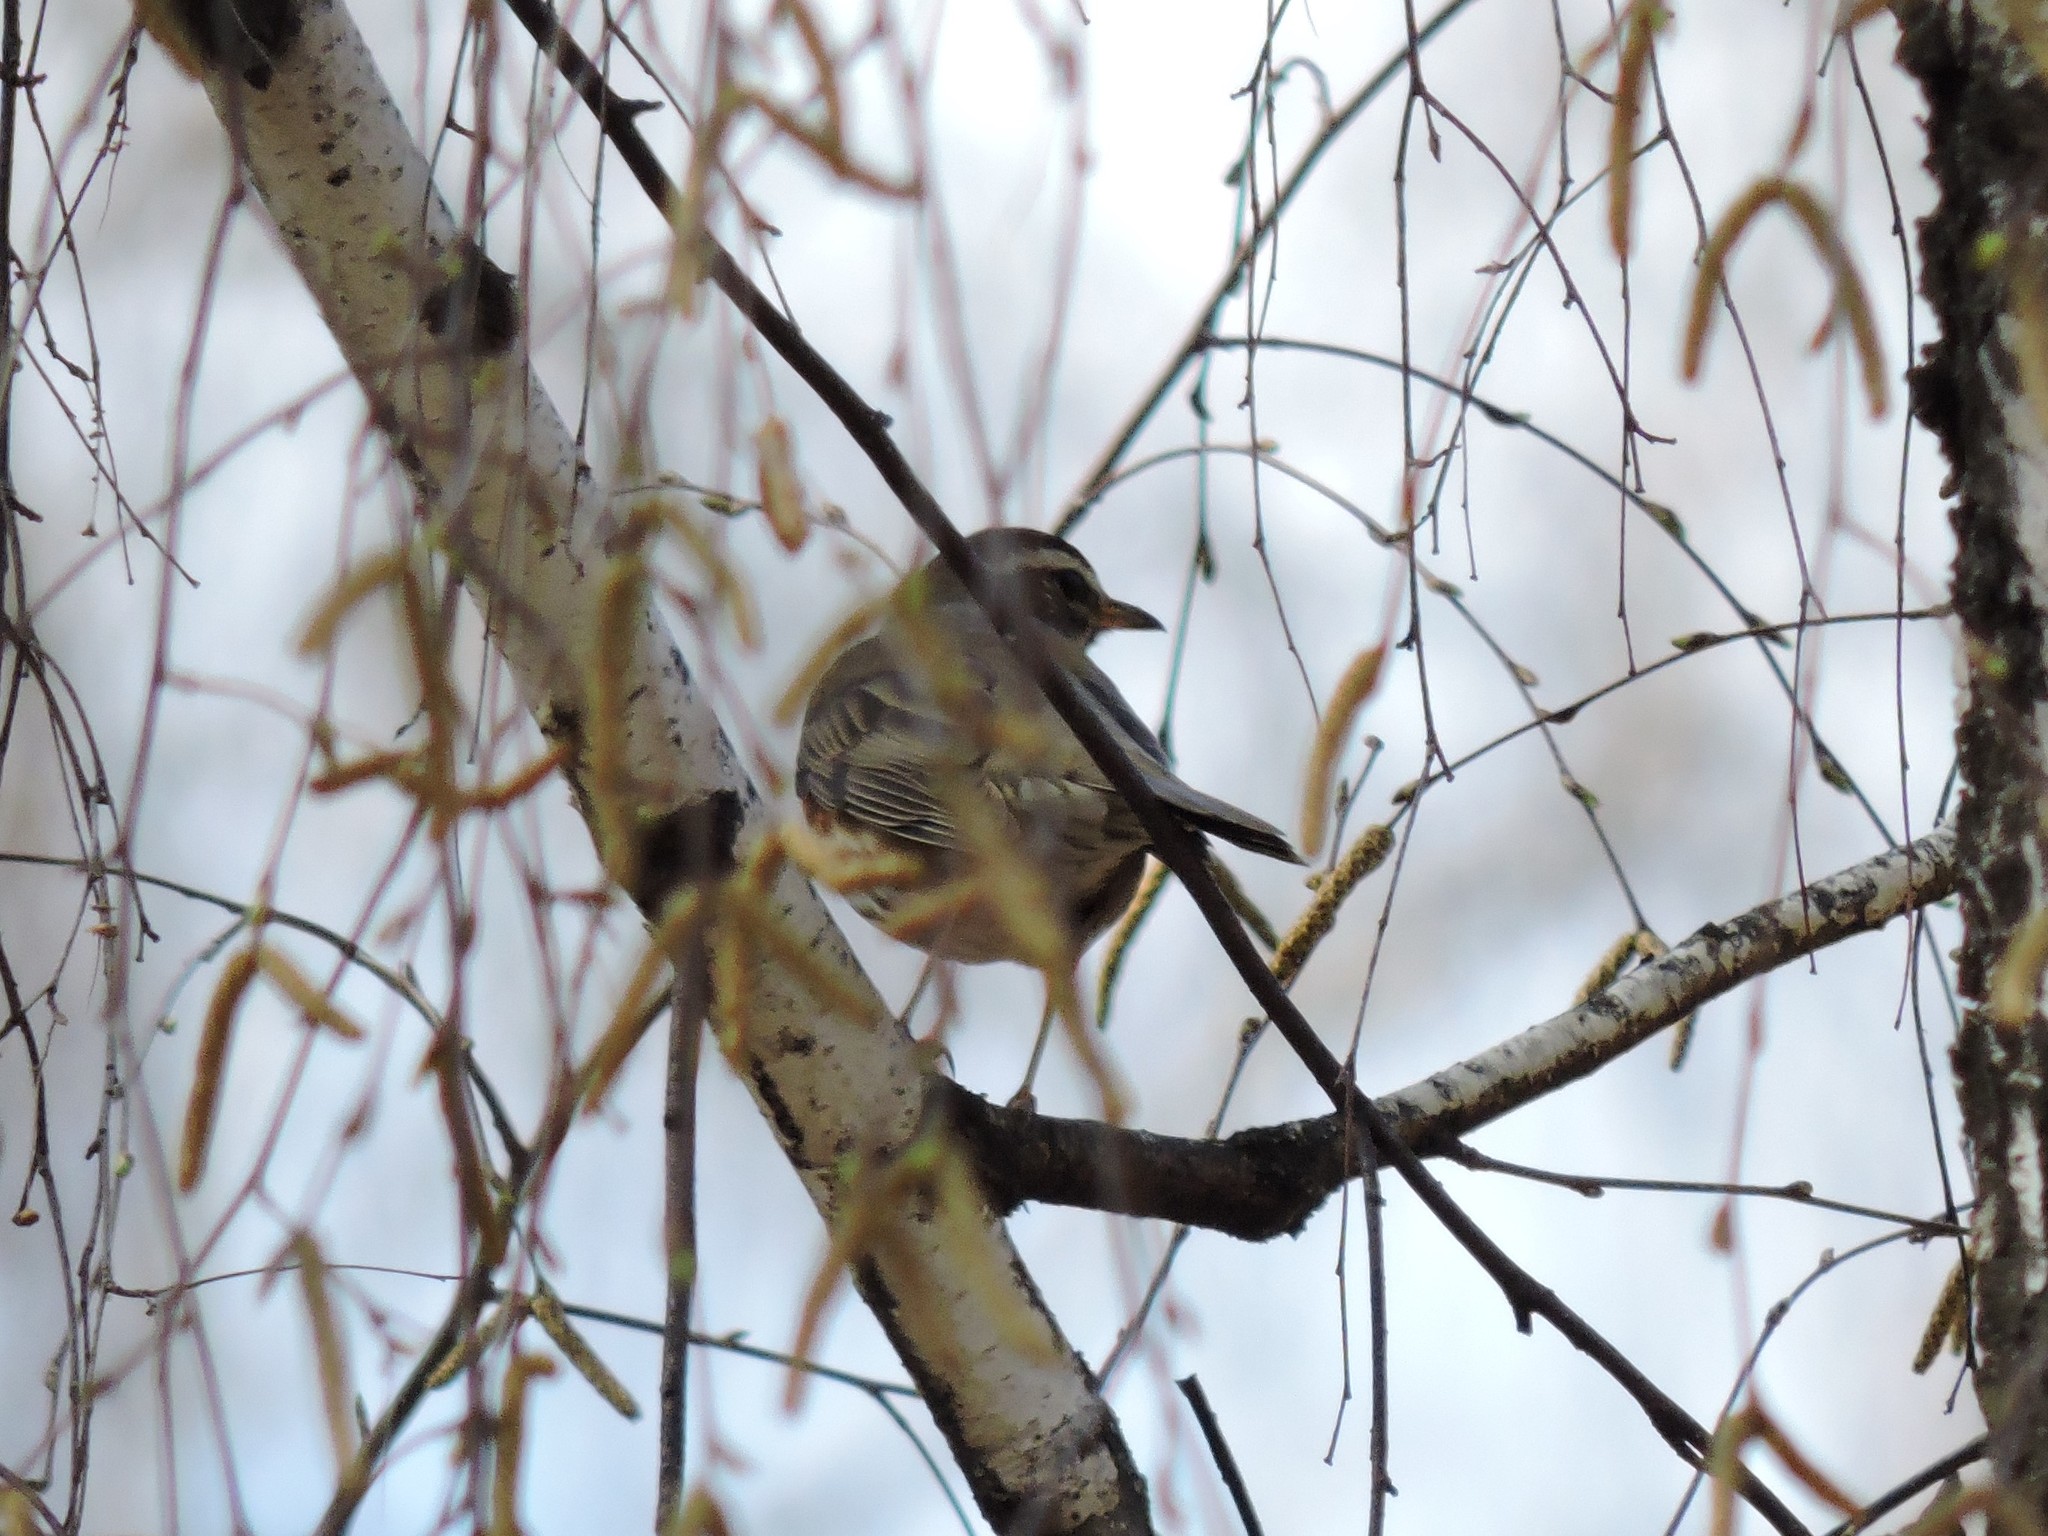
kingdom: Animalia
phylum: Chordata
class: Aves
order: Passeriformes
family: Turdidae
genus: Turdus
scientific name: Turdus iliacus
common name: Redwing
